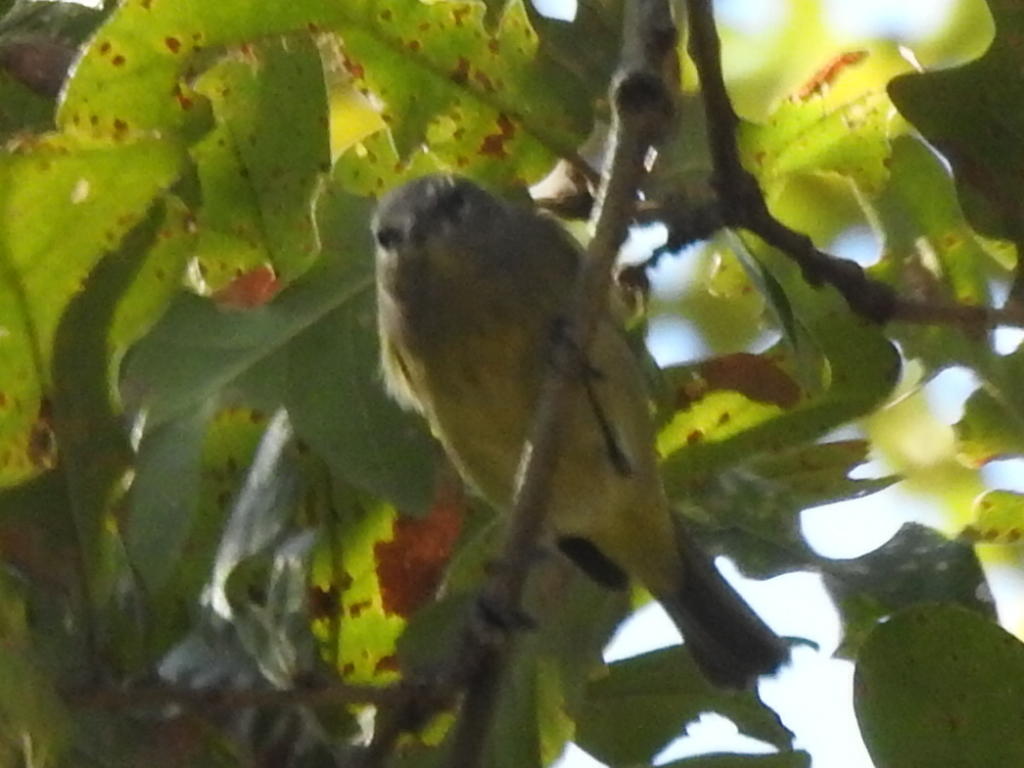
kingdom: Animalia
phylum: Chordata
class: Aves
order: Passeriformes
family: Parulidae
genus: Leiothlypis
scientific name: Leiothlypis celata
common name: Orange-crowned warbler
